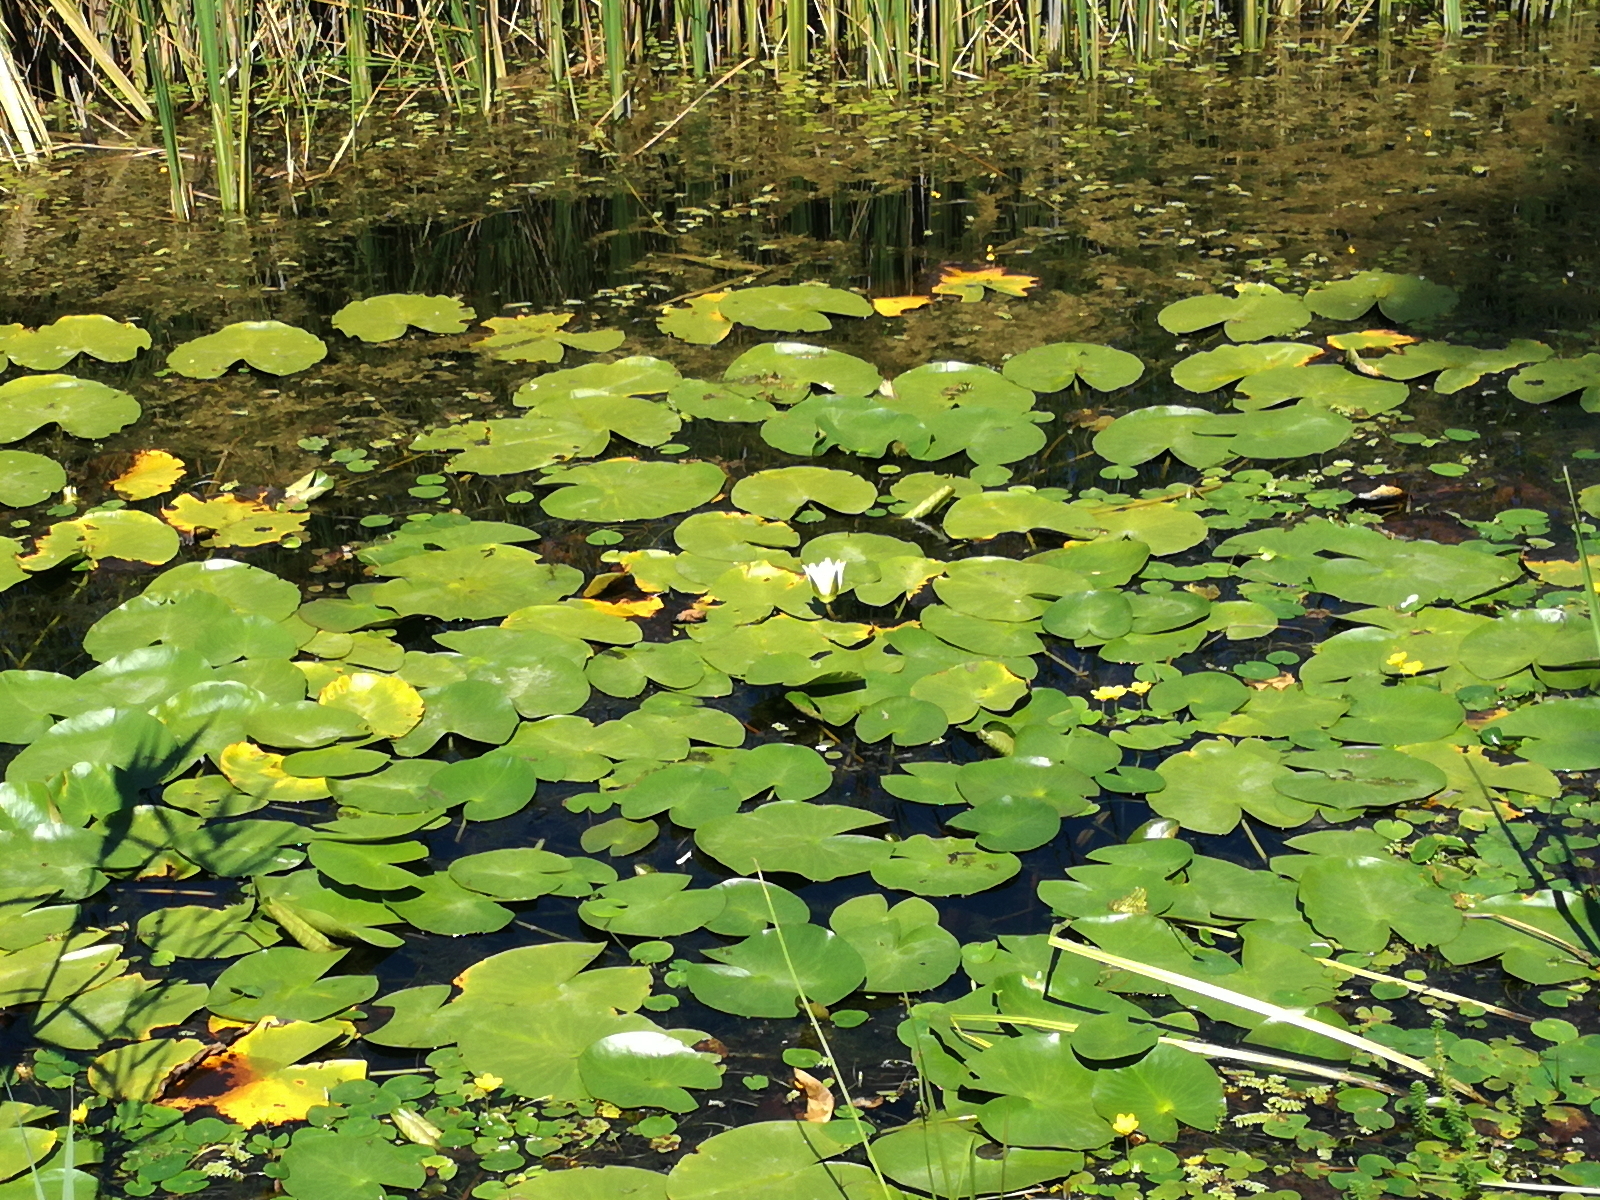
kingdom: Plantae
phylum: Tracheophyta
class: Magnoliopsida
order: Nymphaeales
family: Nymphaeaceae
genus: Nymphaea
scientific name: Nymphaea alba
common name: White water-lily
